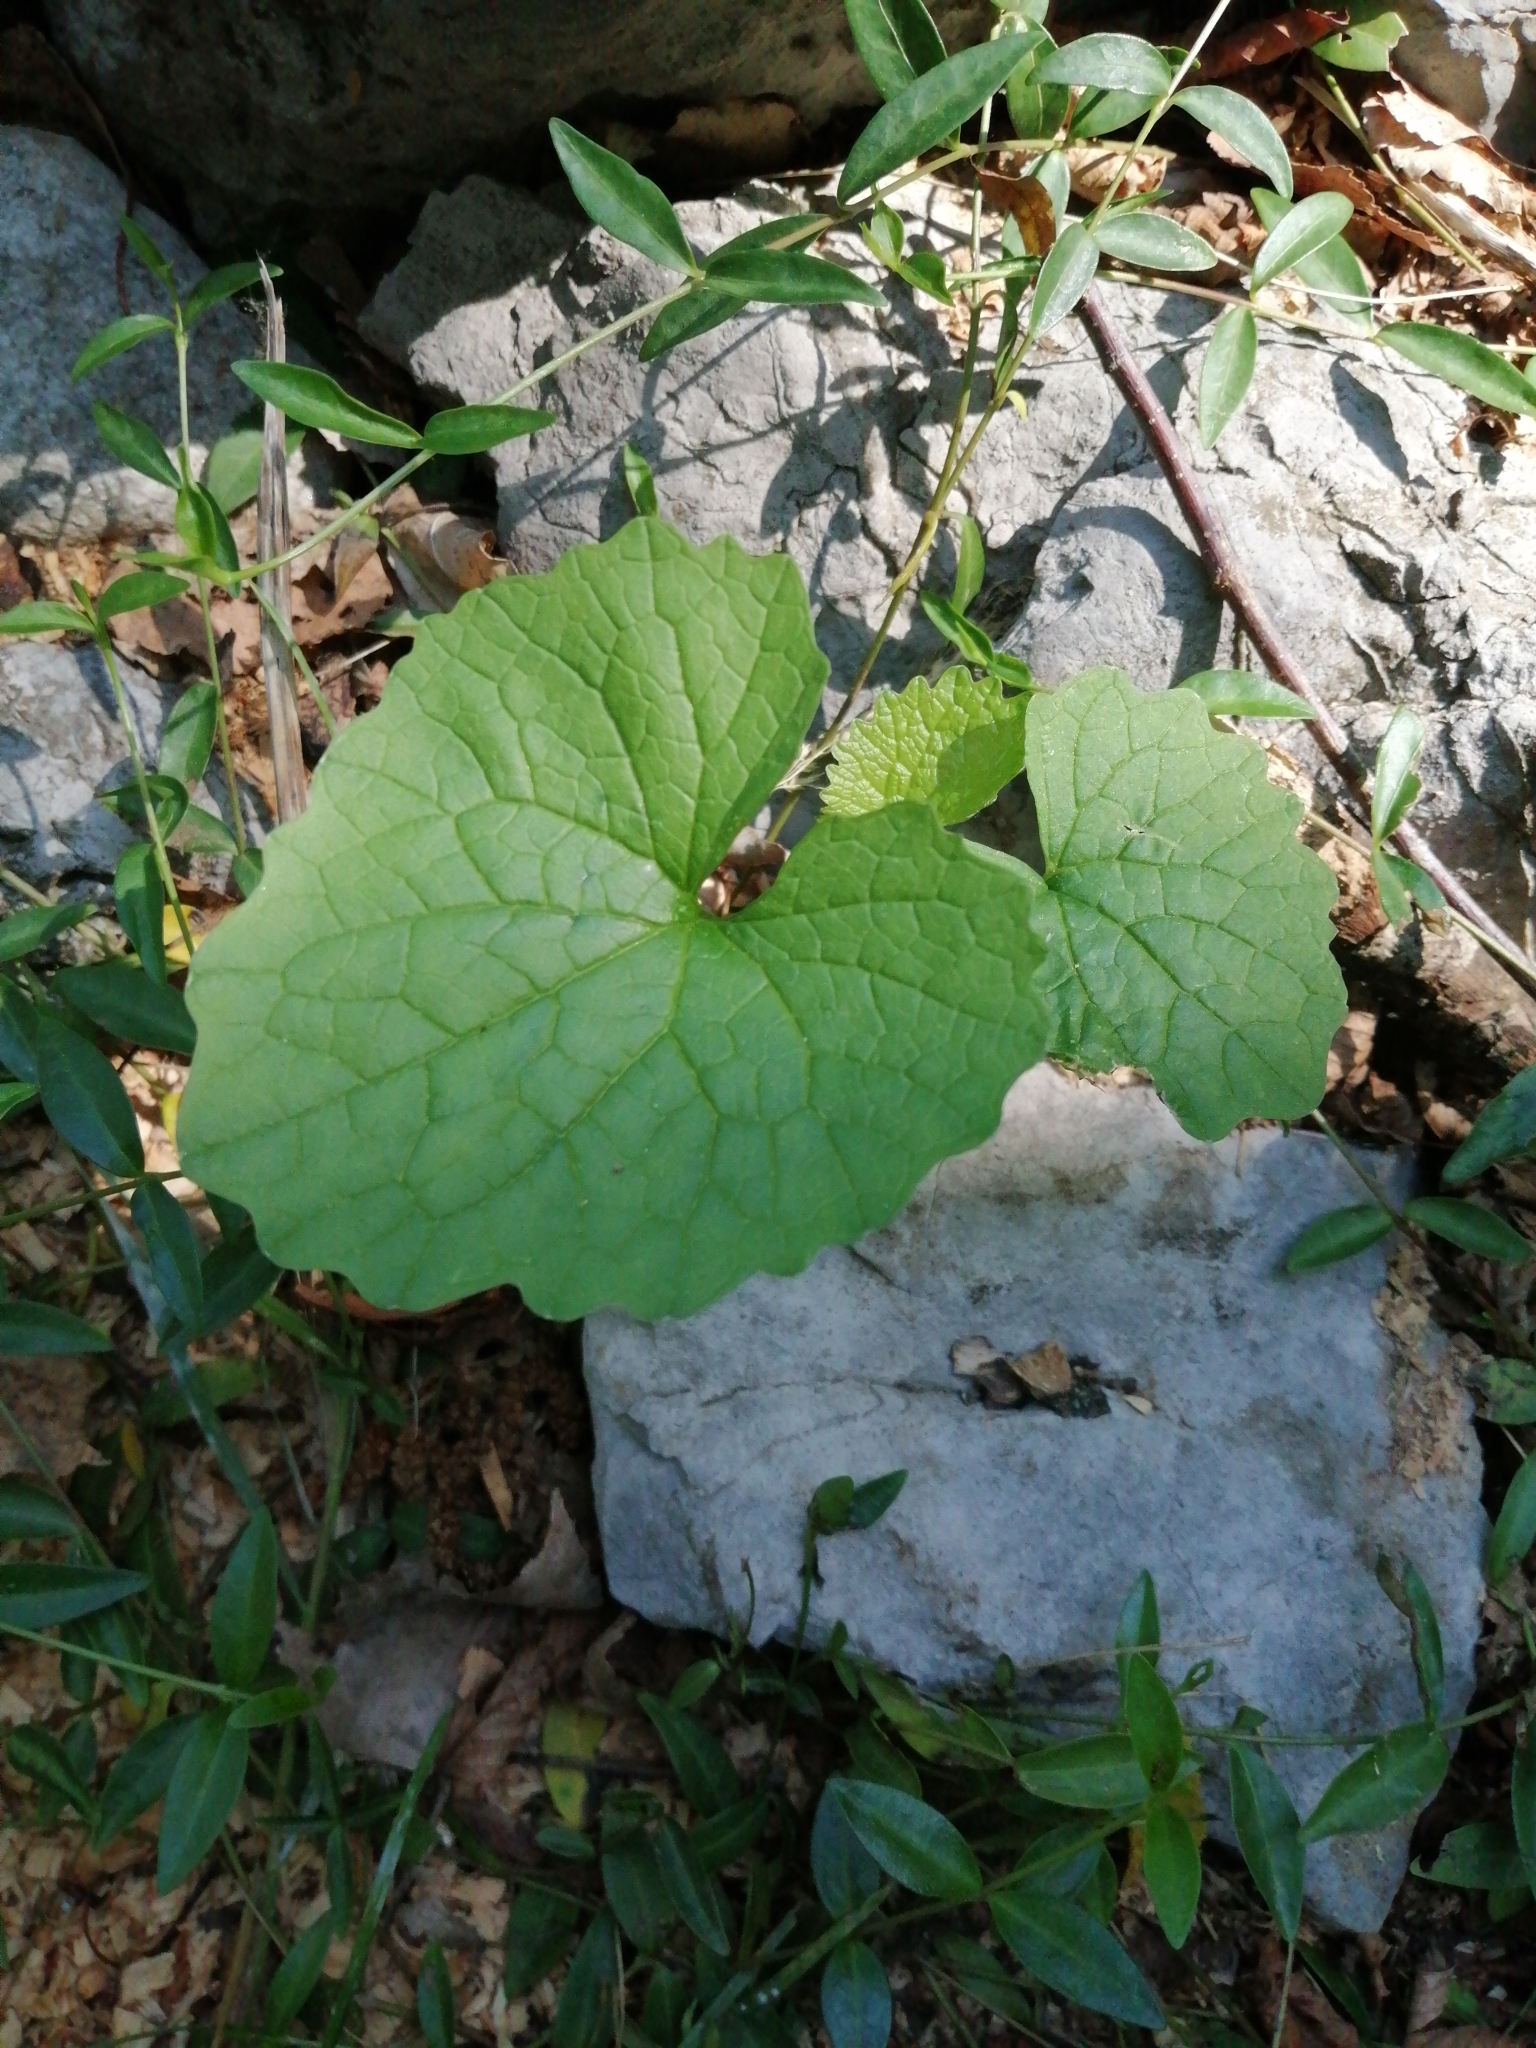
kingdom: Plantae
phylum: Tracheophyta
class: Magnoliopsida
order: Brassicales
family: Brassicaceae
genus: Alliaria
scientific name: Alliaria petiolata
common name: Garlic mustard
